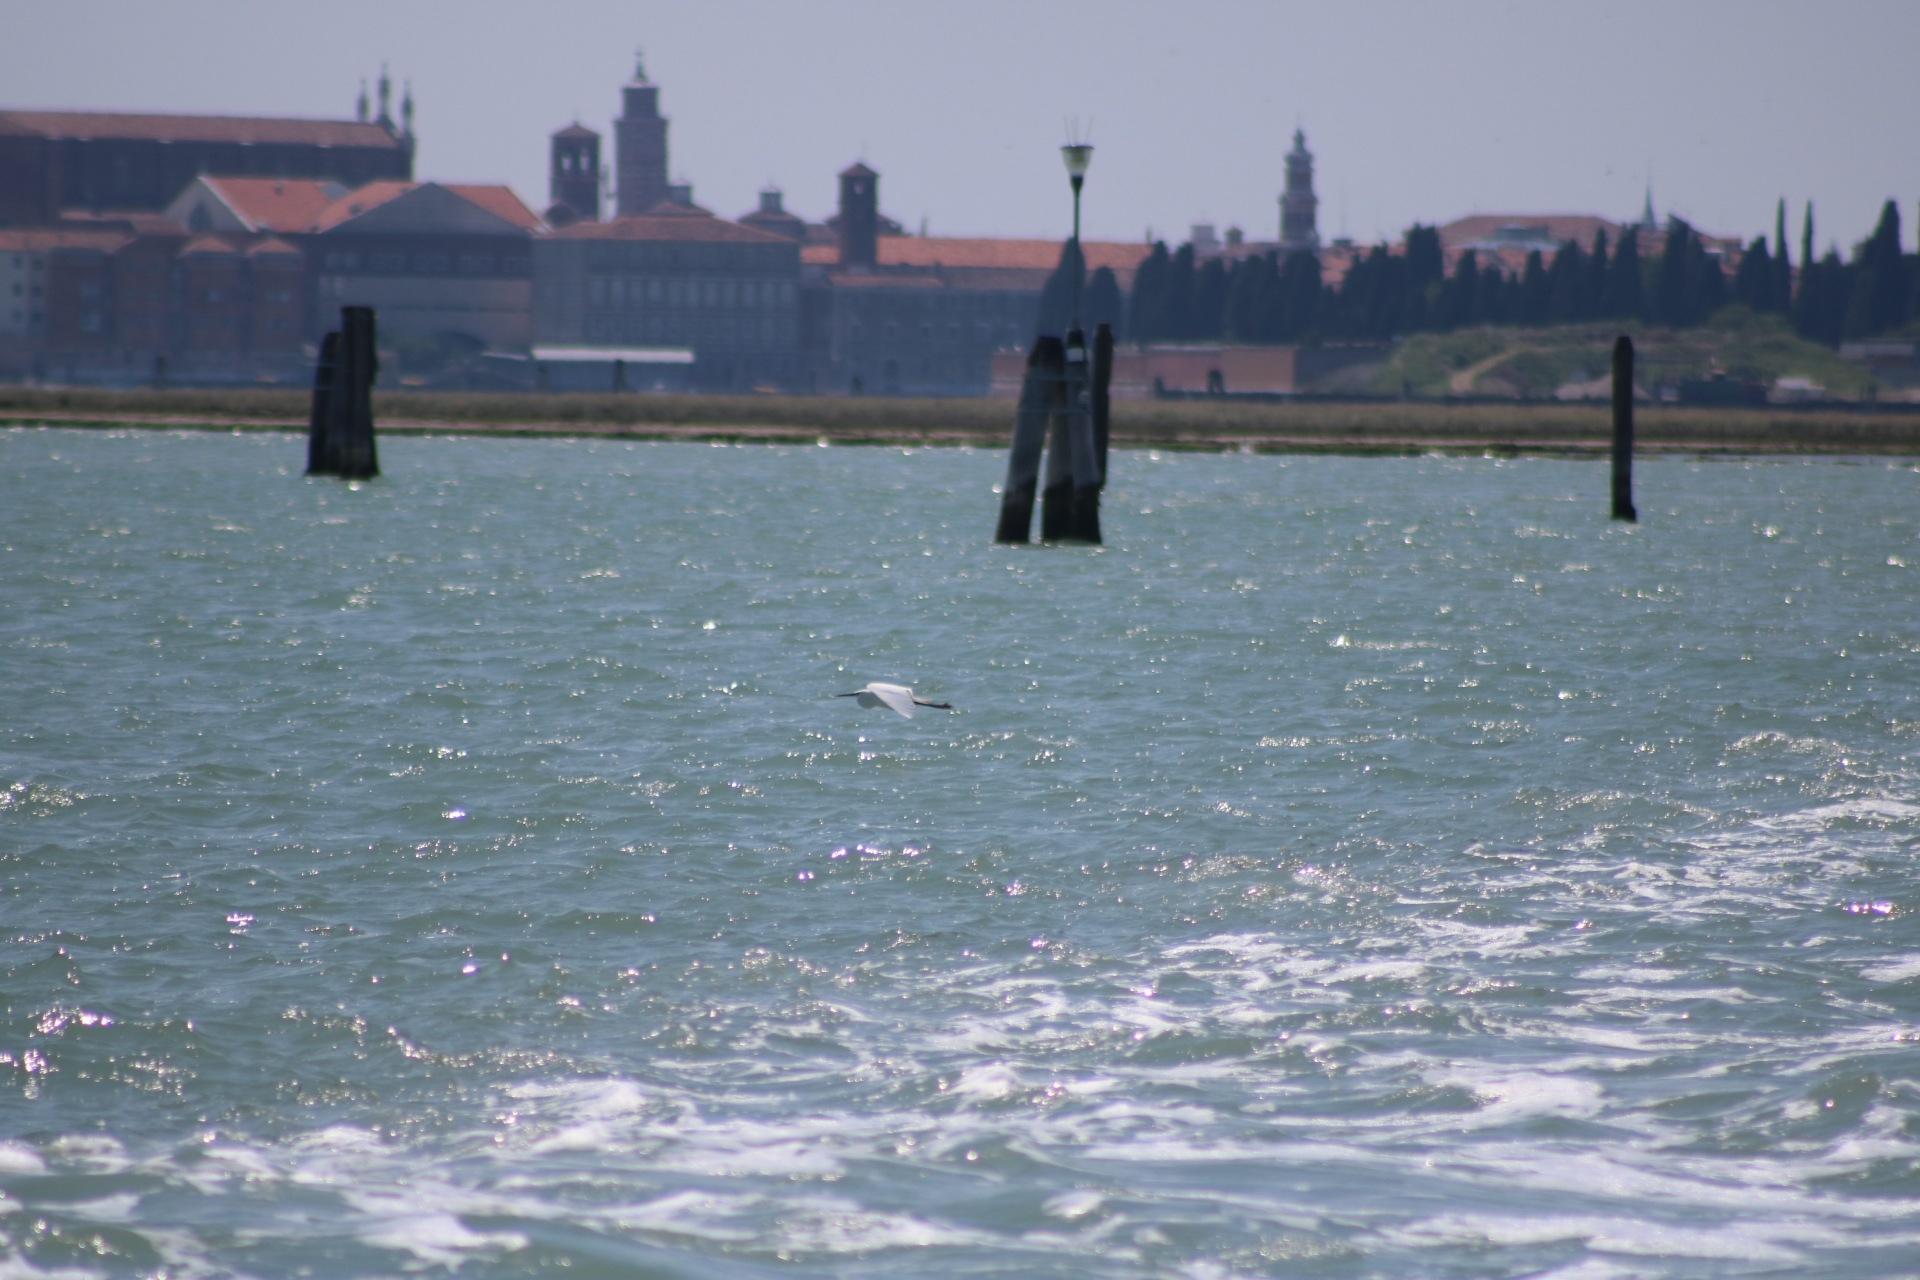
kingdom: Animalia
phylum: Chordata
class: Aves
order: Pelecaniformes
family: Ardeidae
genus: Egretta
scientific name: Egretta garzetta
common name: Little egret
